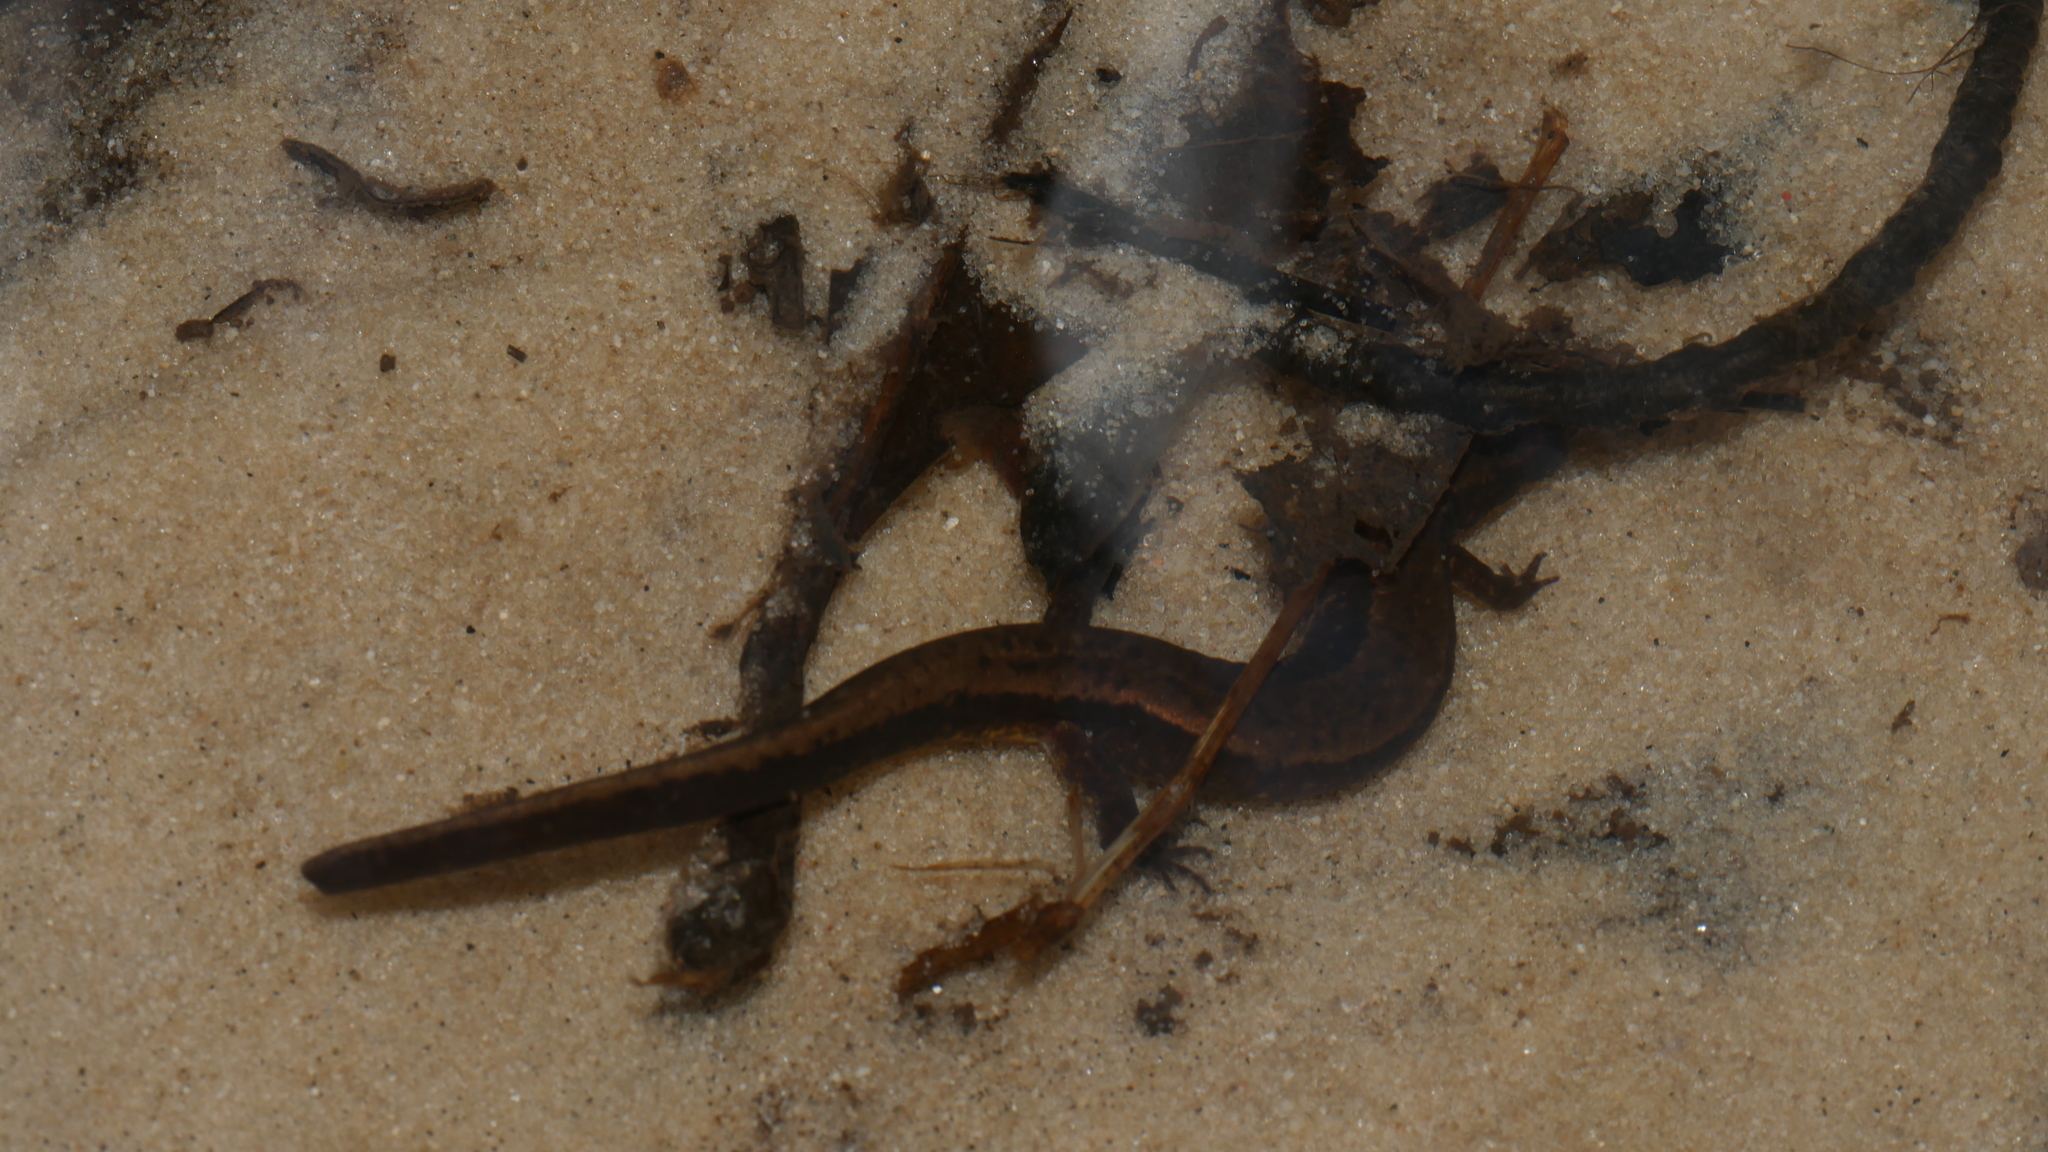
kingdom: Animalia
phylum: Chordata
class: Amphibia
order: Caudata
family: Plethodontidae
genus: Eurycea
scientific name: Eurycea cirrigera
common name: Southern two-lined salamander
